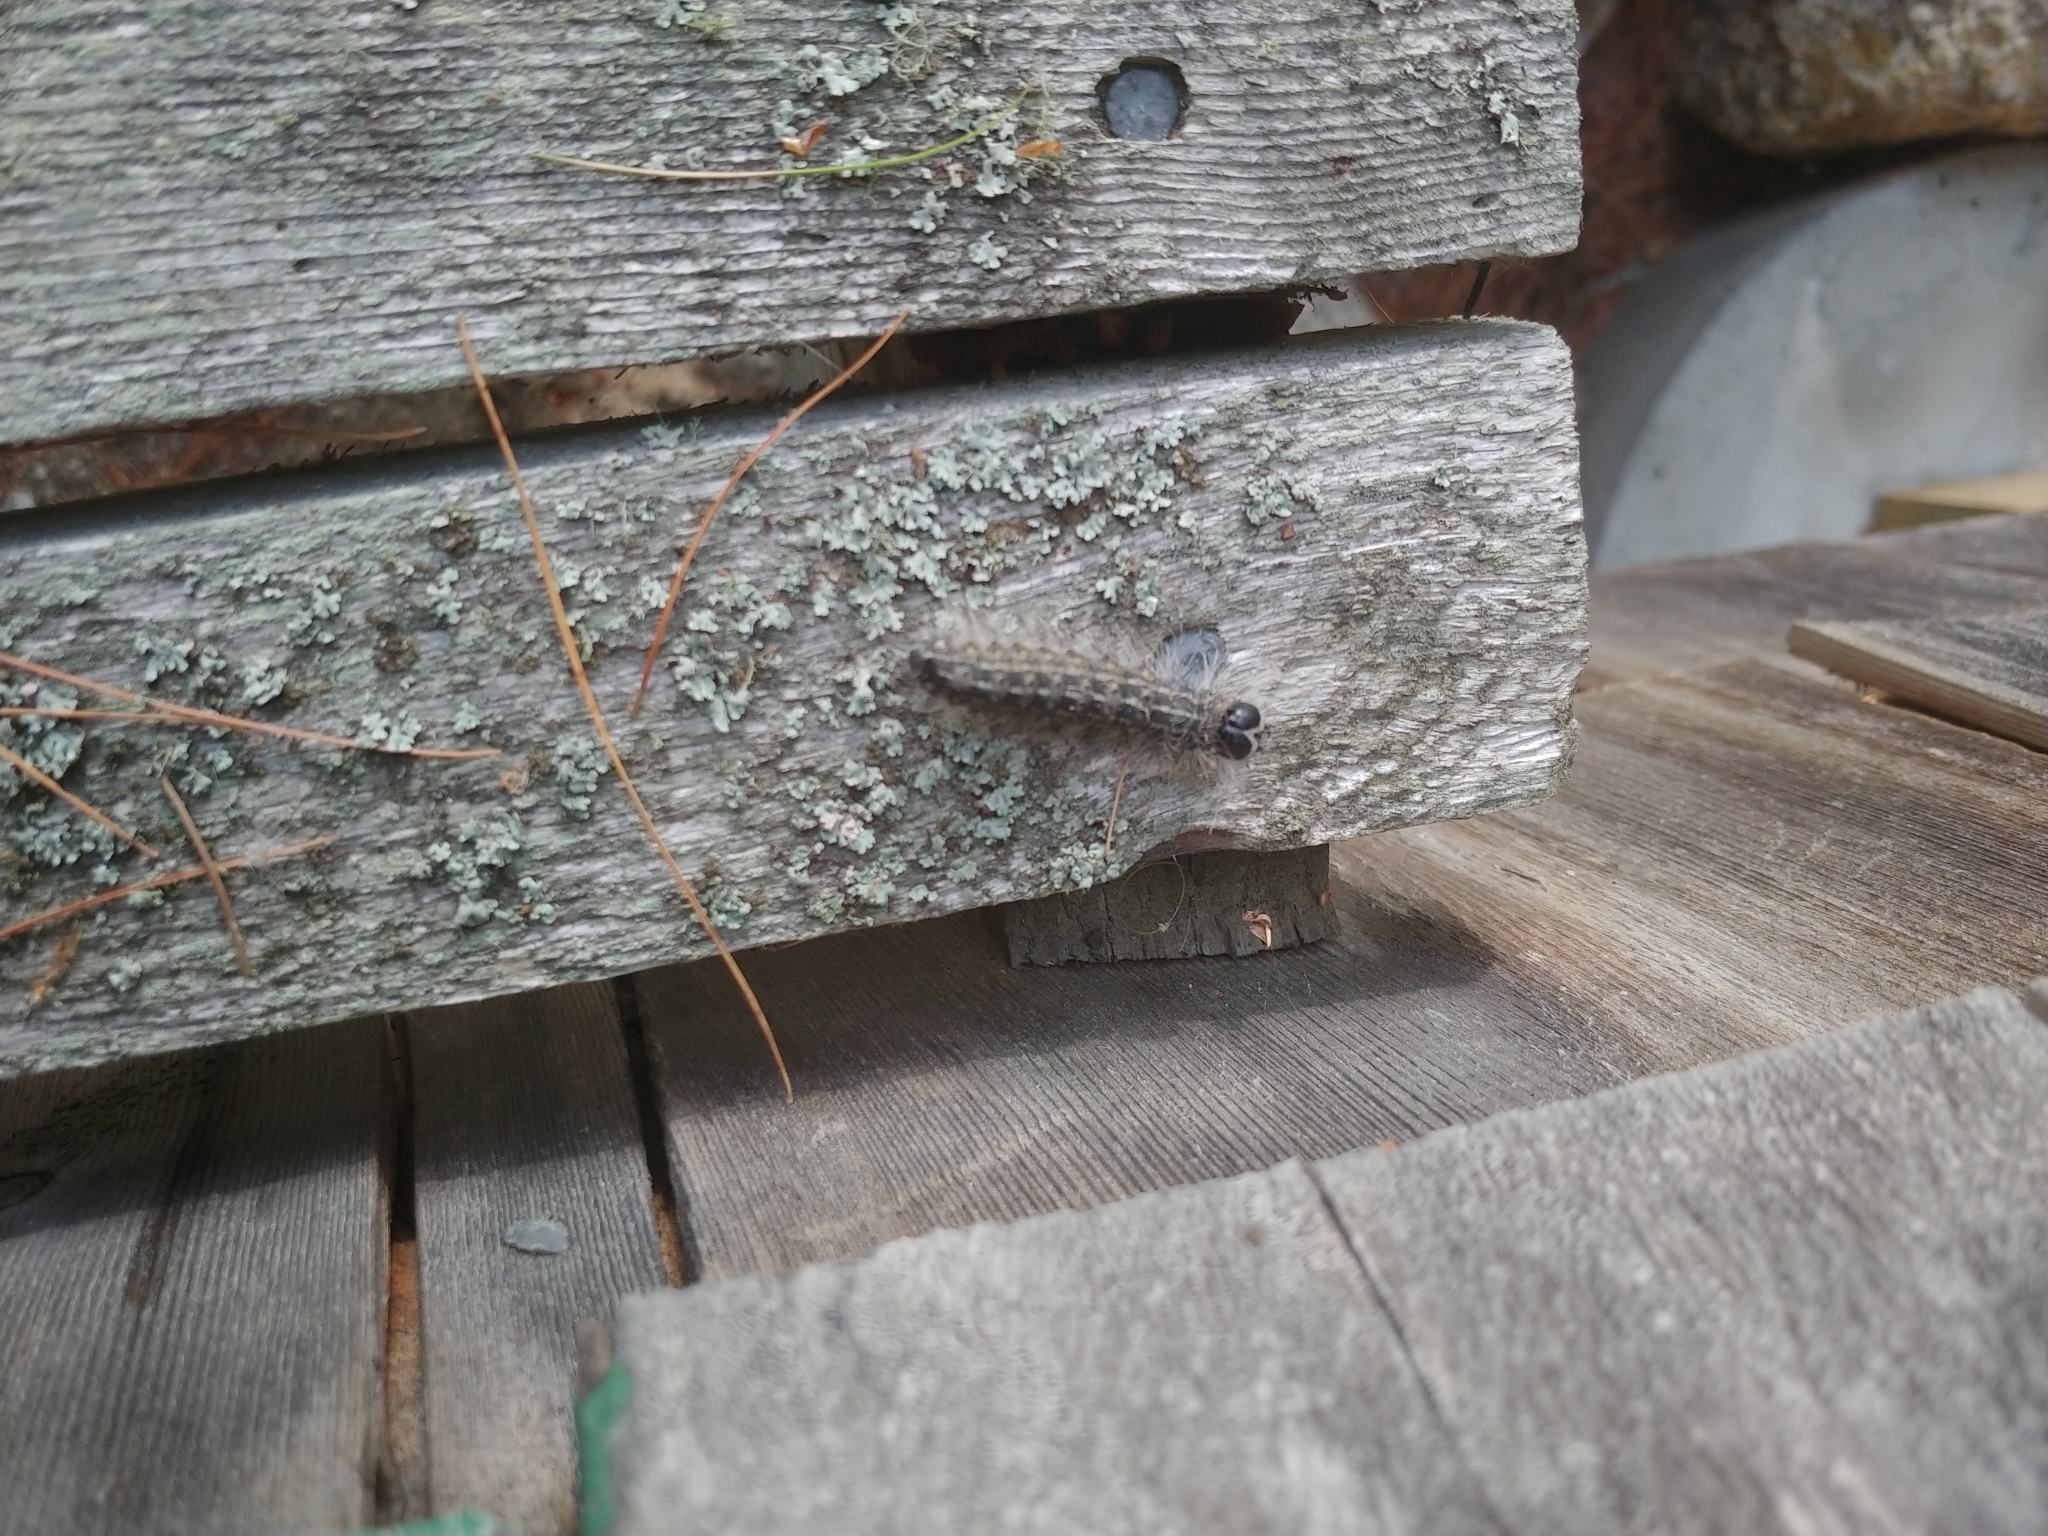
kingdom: Animalia
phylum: Arthropoda
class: Insecta
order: Lepidoptera
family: Noctuidae
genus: Acronicta
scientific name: Acronicta lobeliae
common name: Greater oak dagger
